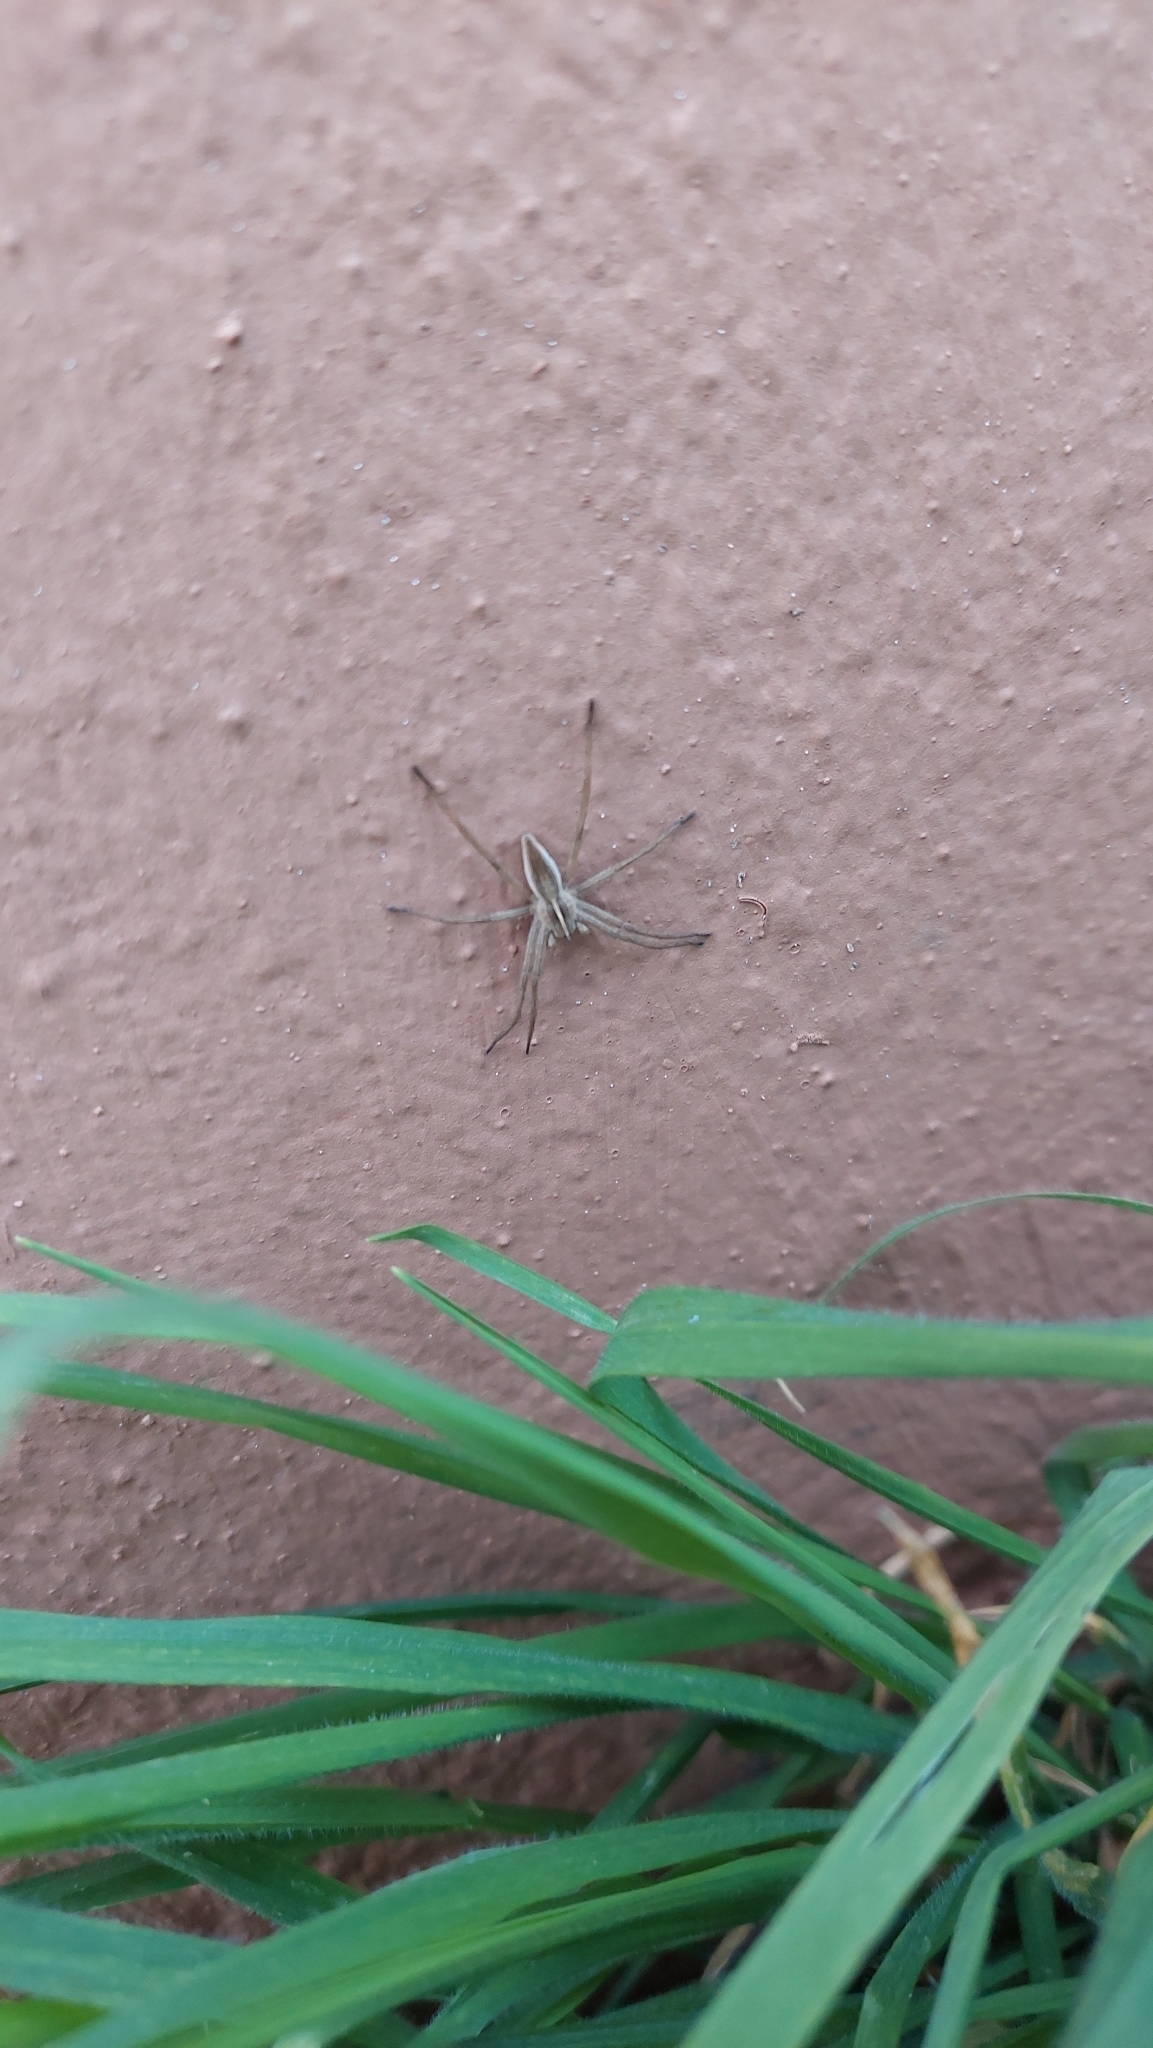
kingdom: Animalia
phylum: Arthropoda
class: Arachnida
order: Araneae
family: Pisauridae
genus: Pisaura
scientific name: Pisaura mirabilis
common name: Tent spider
